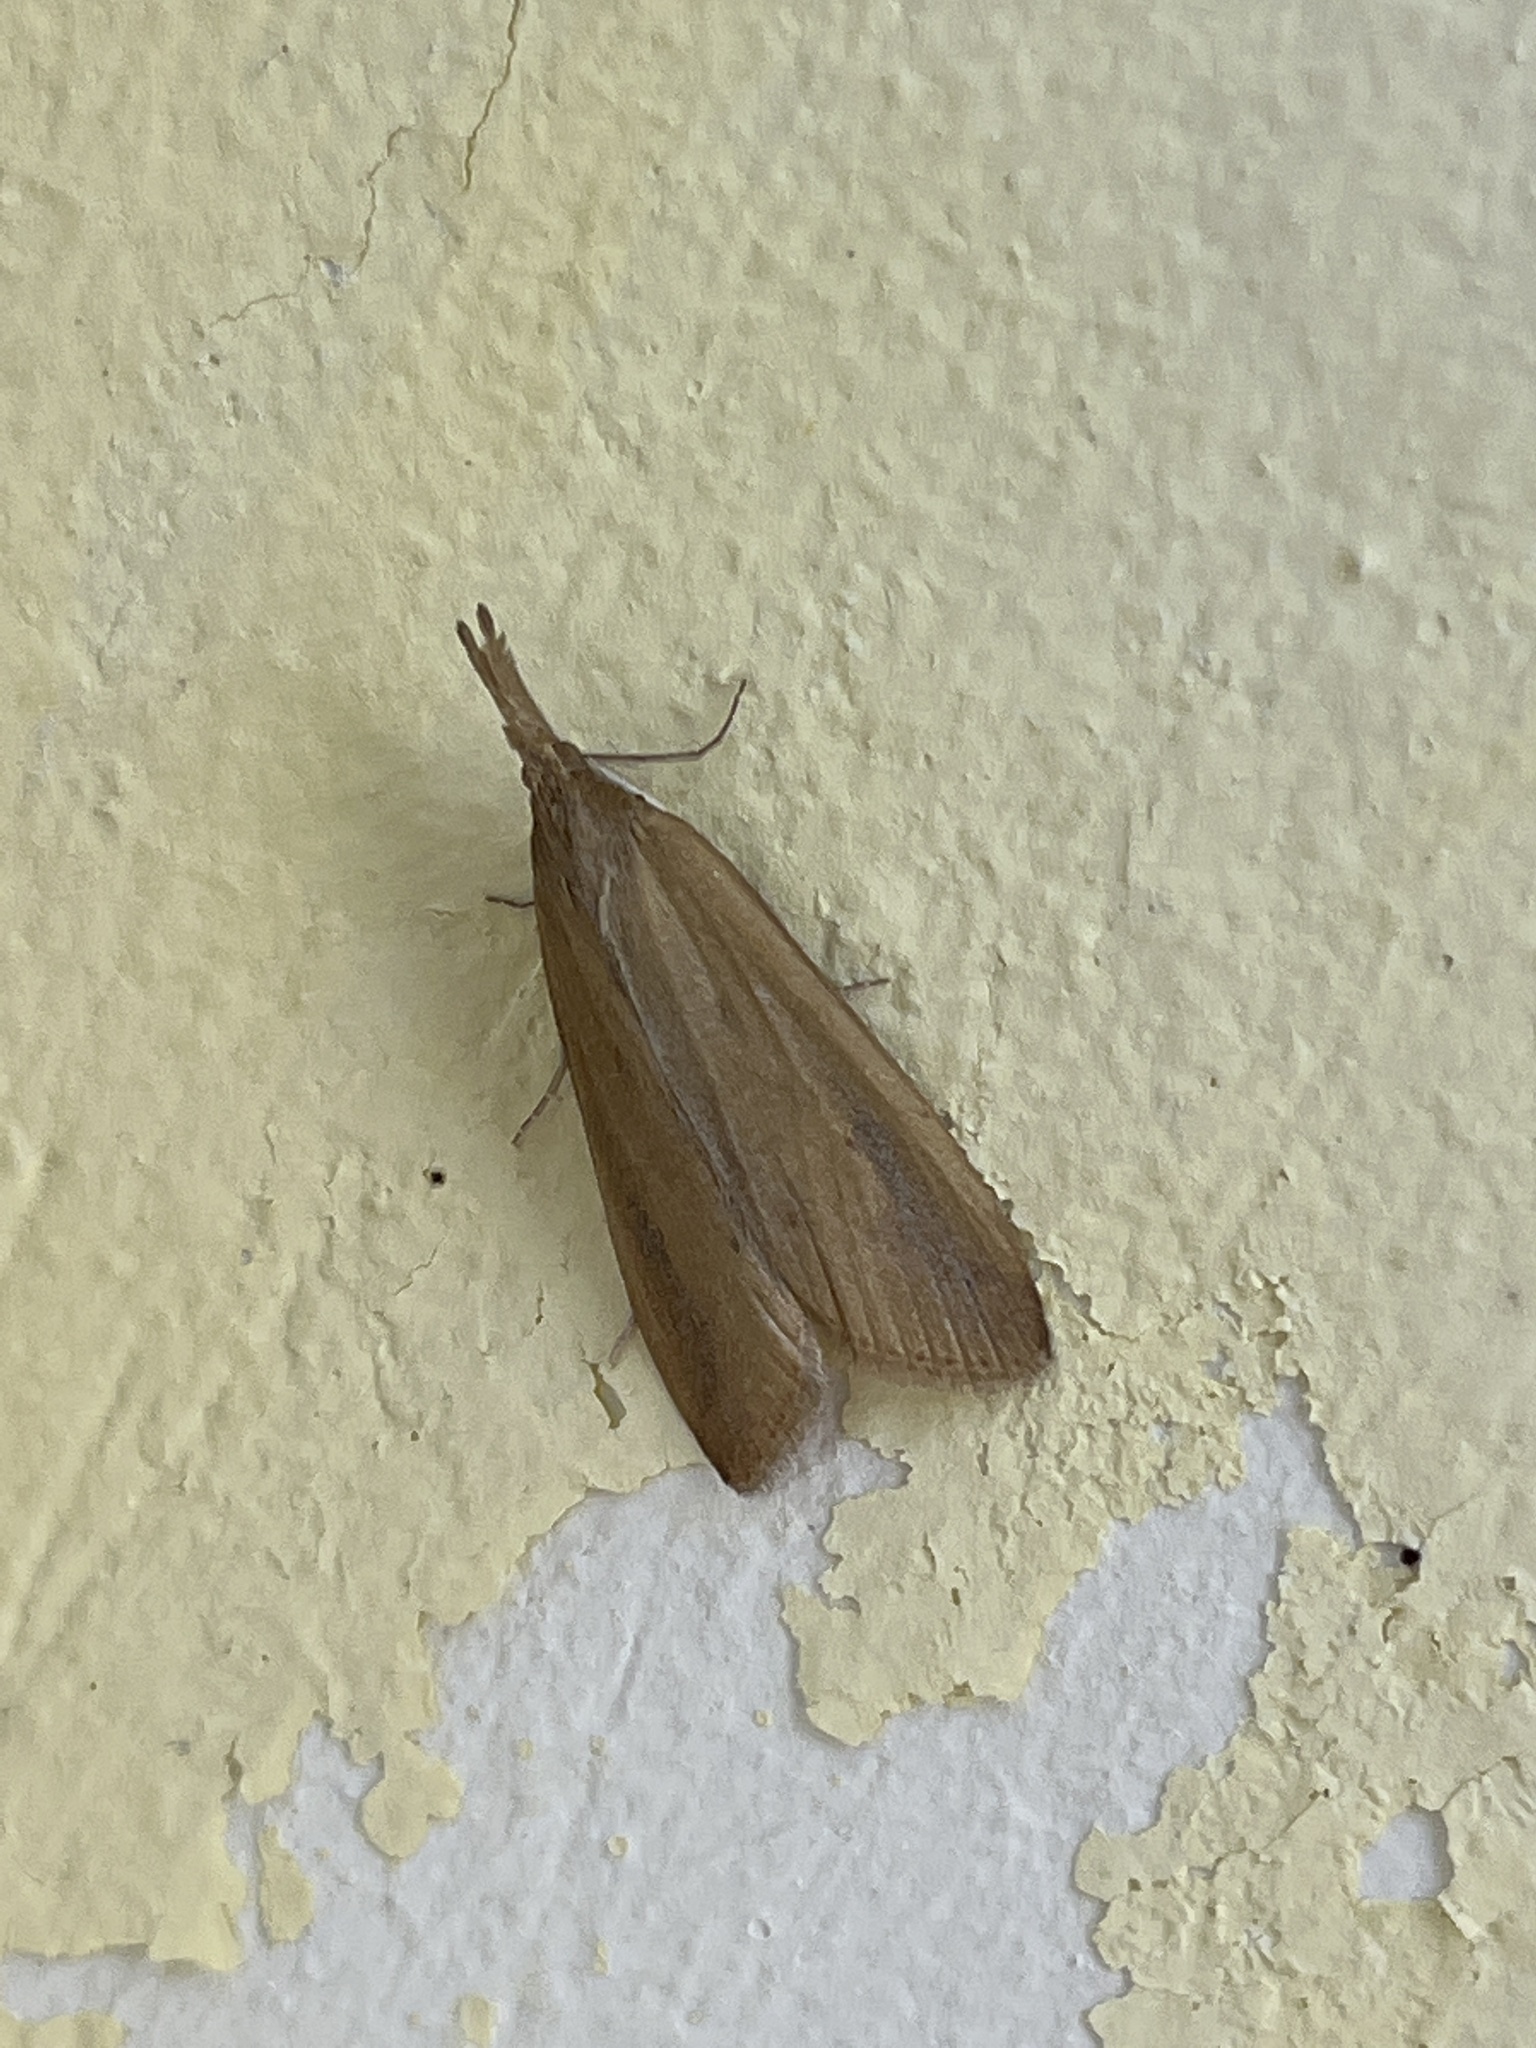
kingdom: Animalia
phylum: Arthropoda
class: Insecta
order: Lepidoptera
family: Crambidae
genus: Schoenobius
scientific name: Schoenobius gigantella
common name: Giant water-veneer
